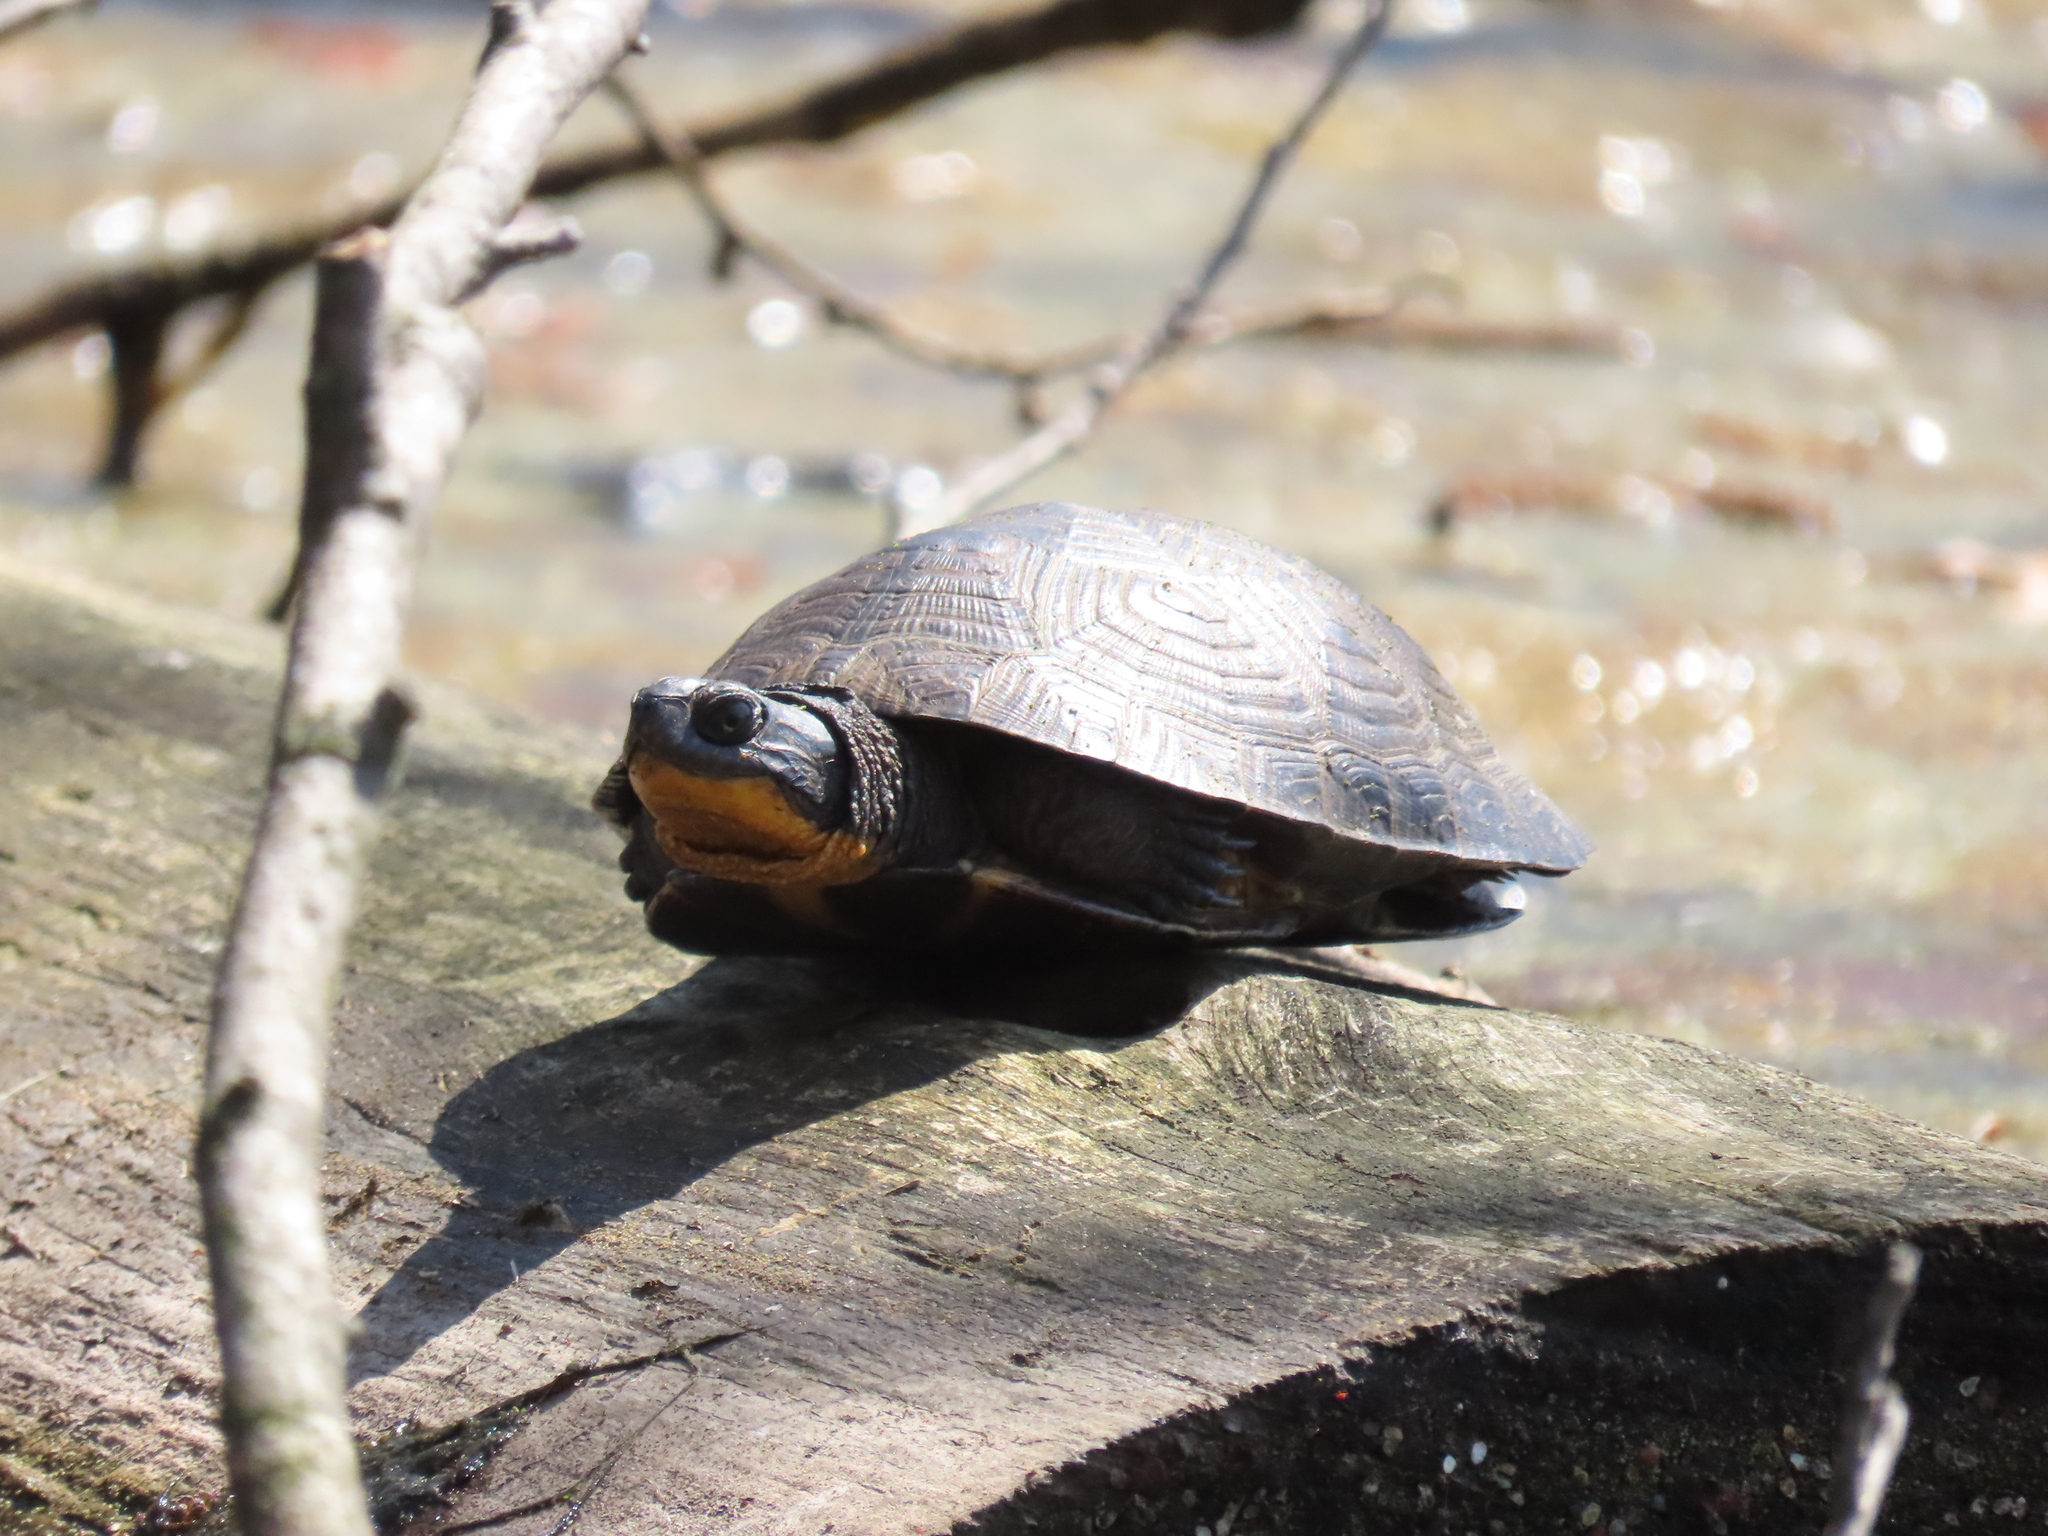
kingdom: Animalia
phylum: Chordata
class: Testudines
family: Emydidae
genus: Emys
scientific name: Emys blandingii
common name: Blanding's turtle
